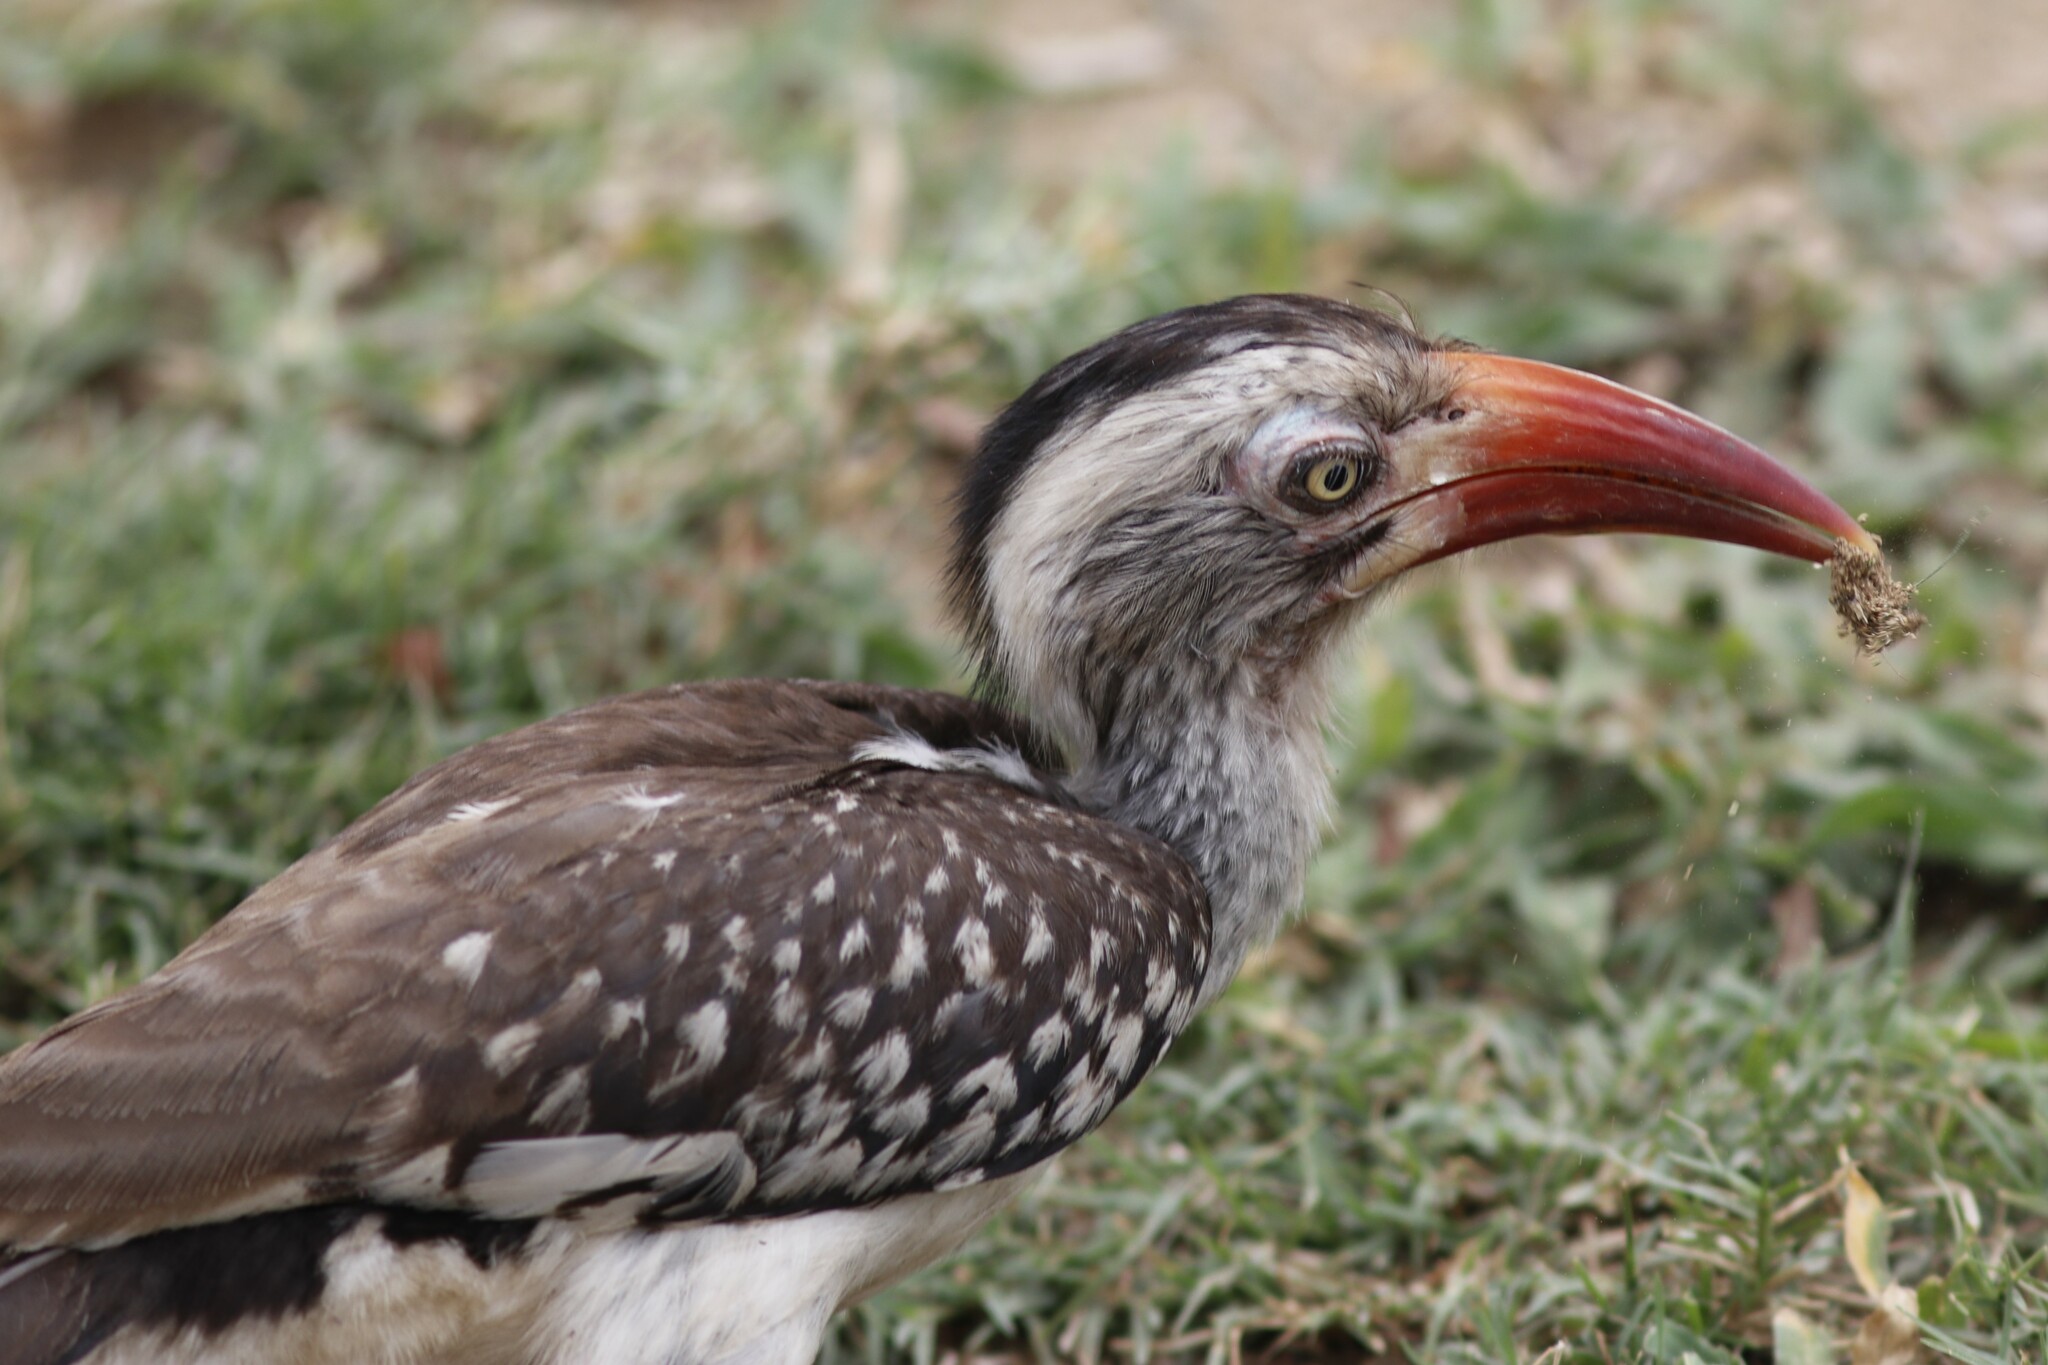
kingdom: Animalia
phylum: Chordata
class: Aves
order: Bucerotiformes
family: Bucerotidae
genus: Tockus
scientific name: Tockus rufirostris
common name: Southern red-billed hornbill
